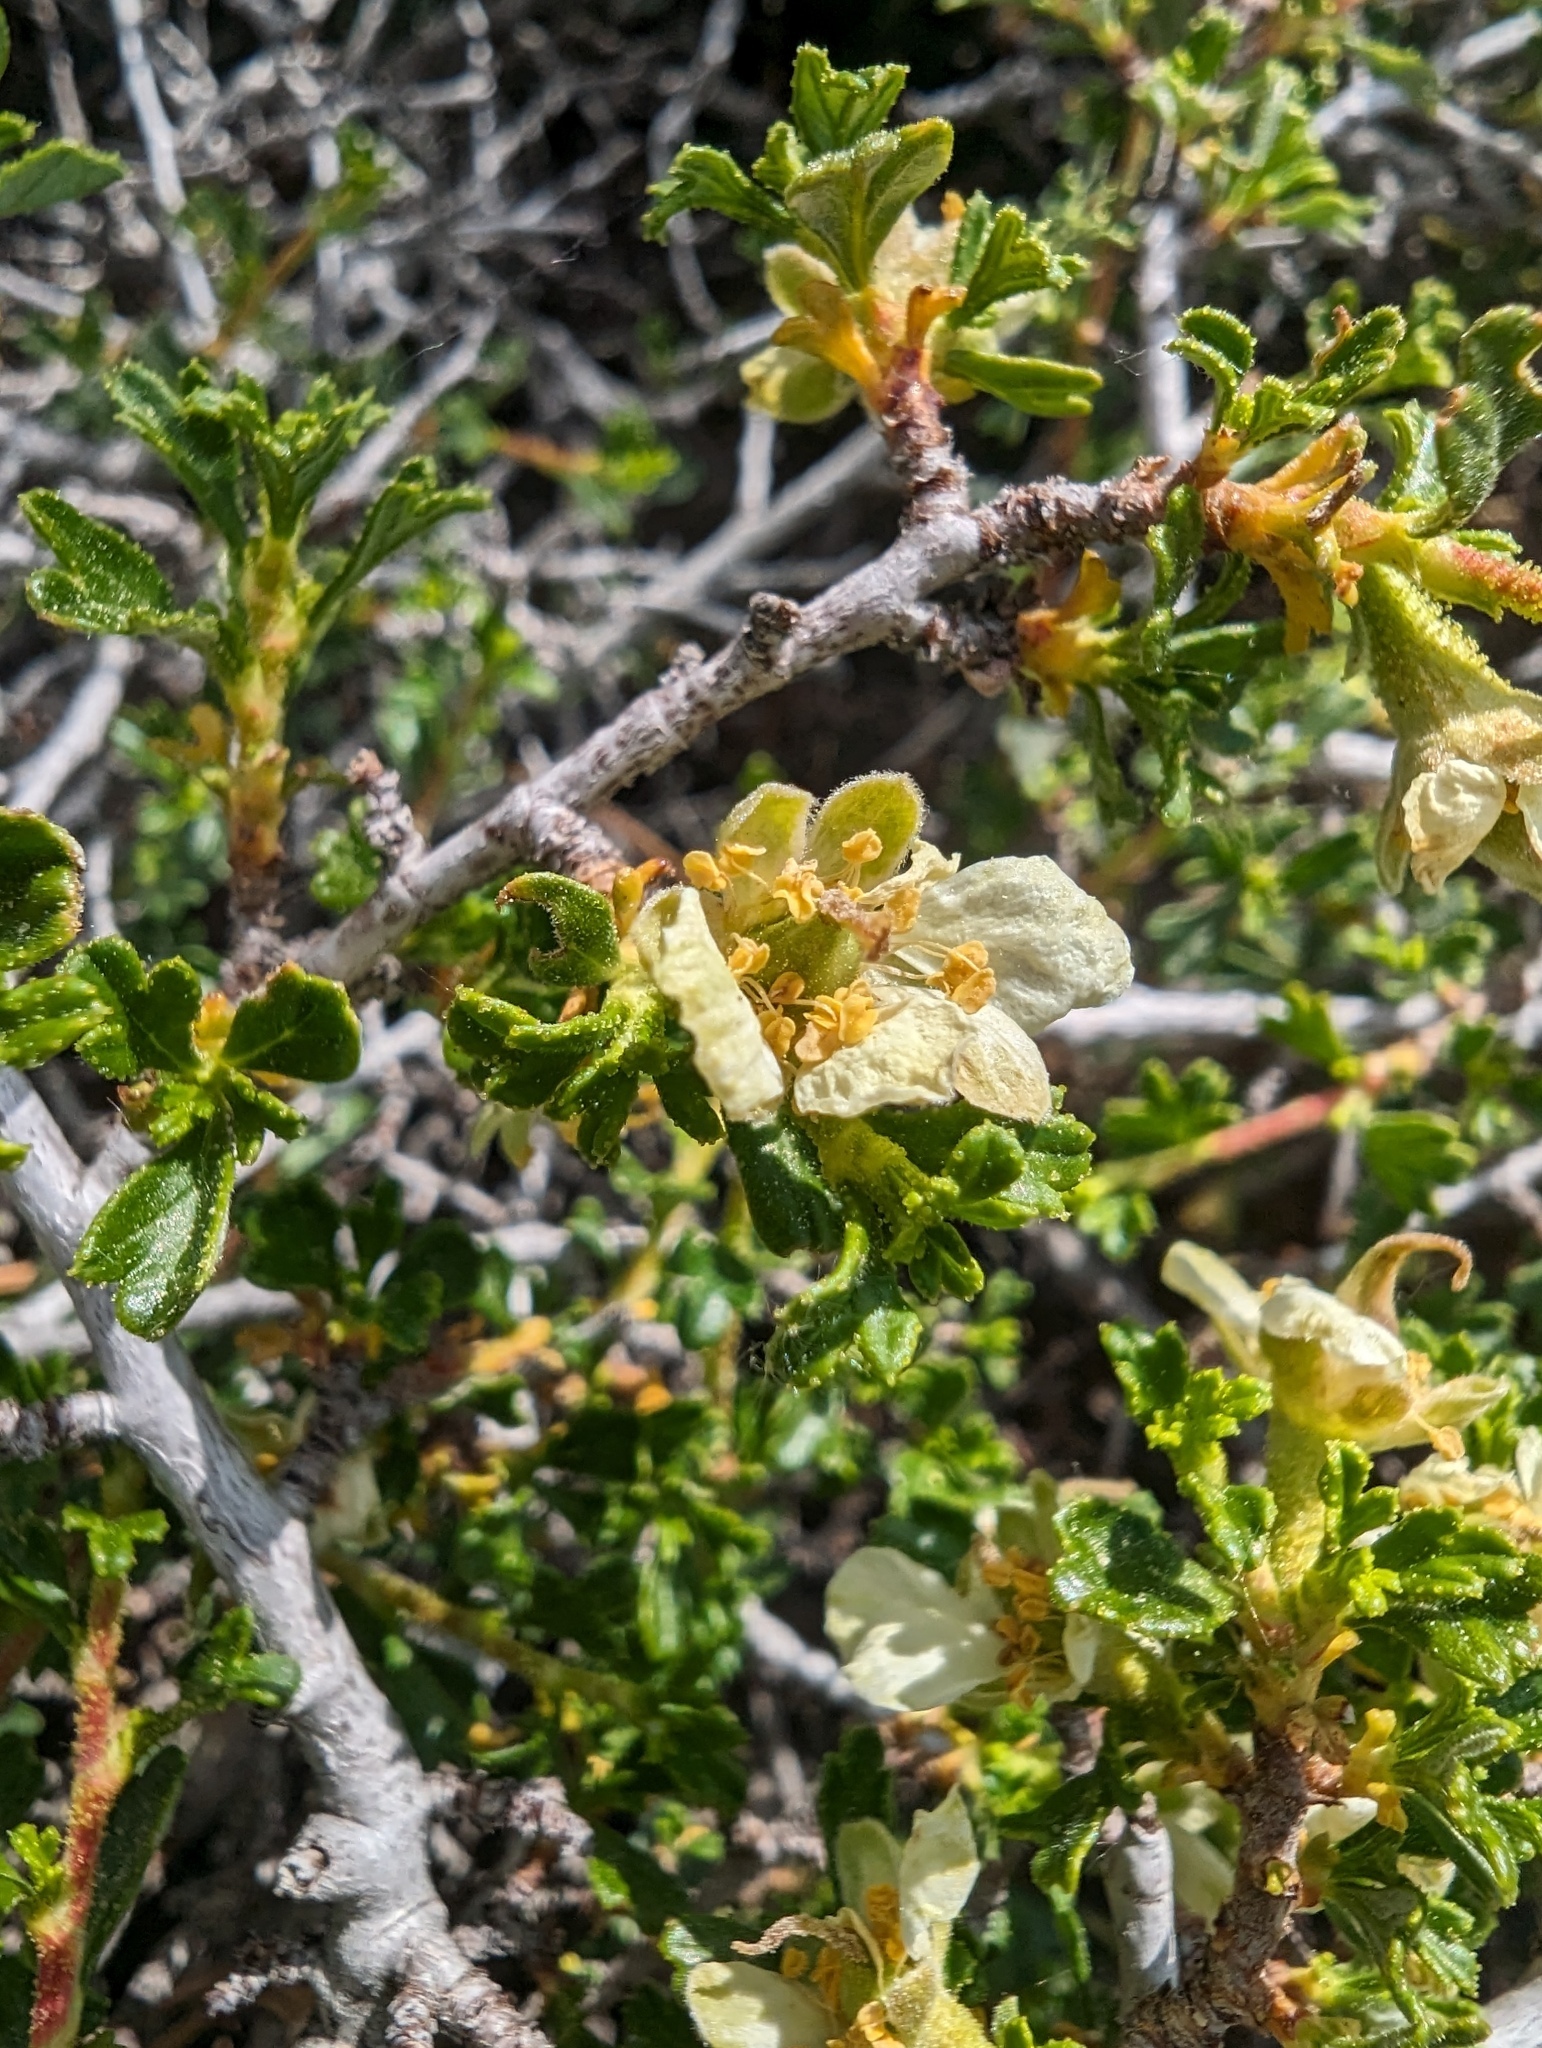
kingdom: Plantae
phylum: Tracheophyta
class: Magnoliopsida
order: Rosales
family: Rosaceae
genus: Purshia
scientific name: Purshia tridentata
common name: Antelope bitterbrush
